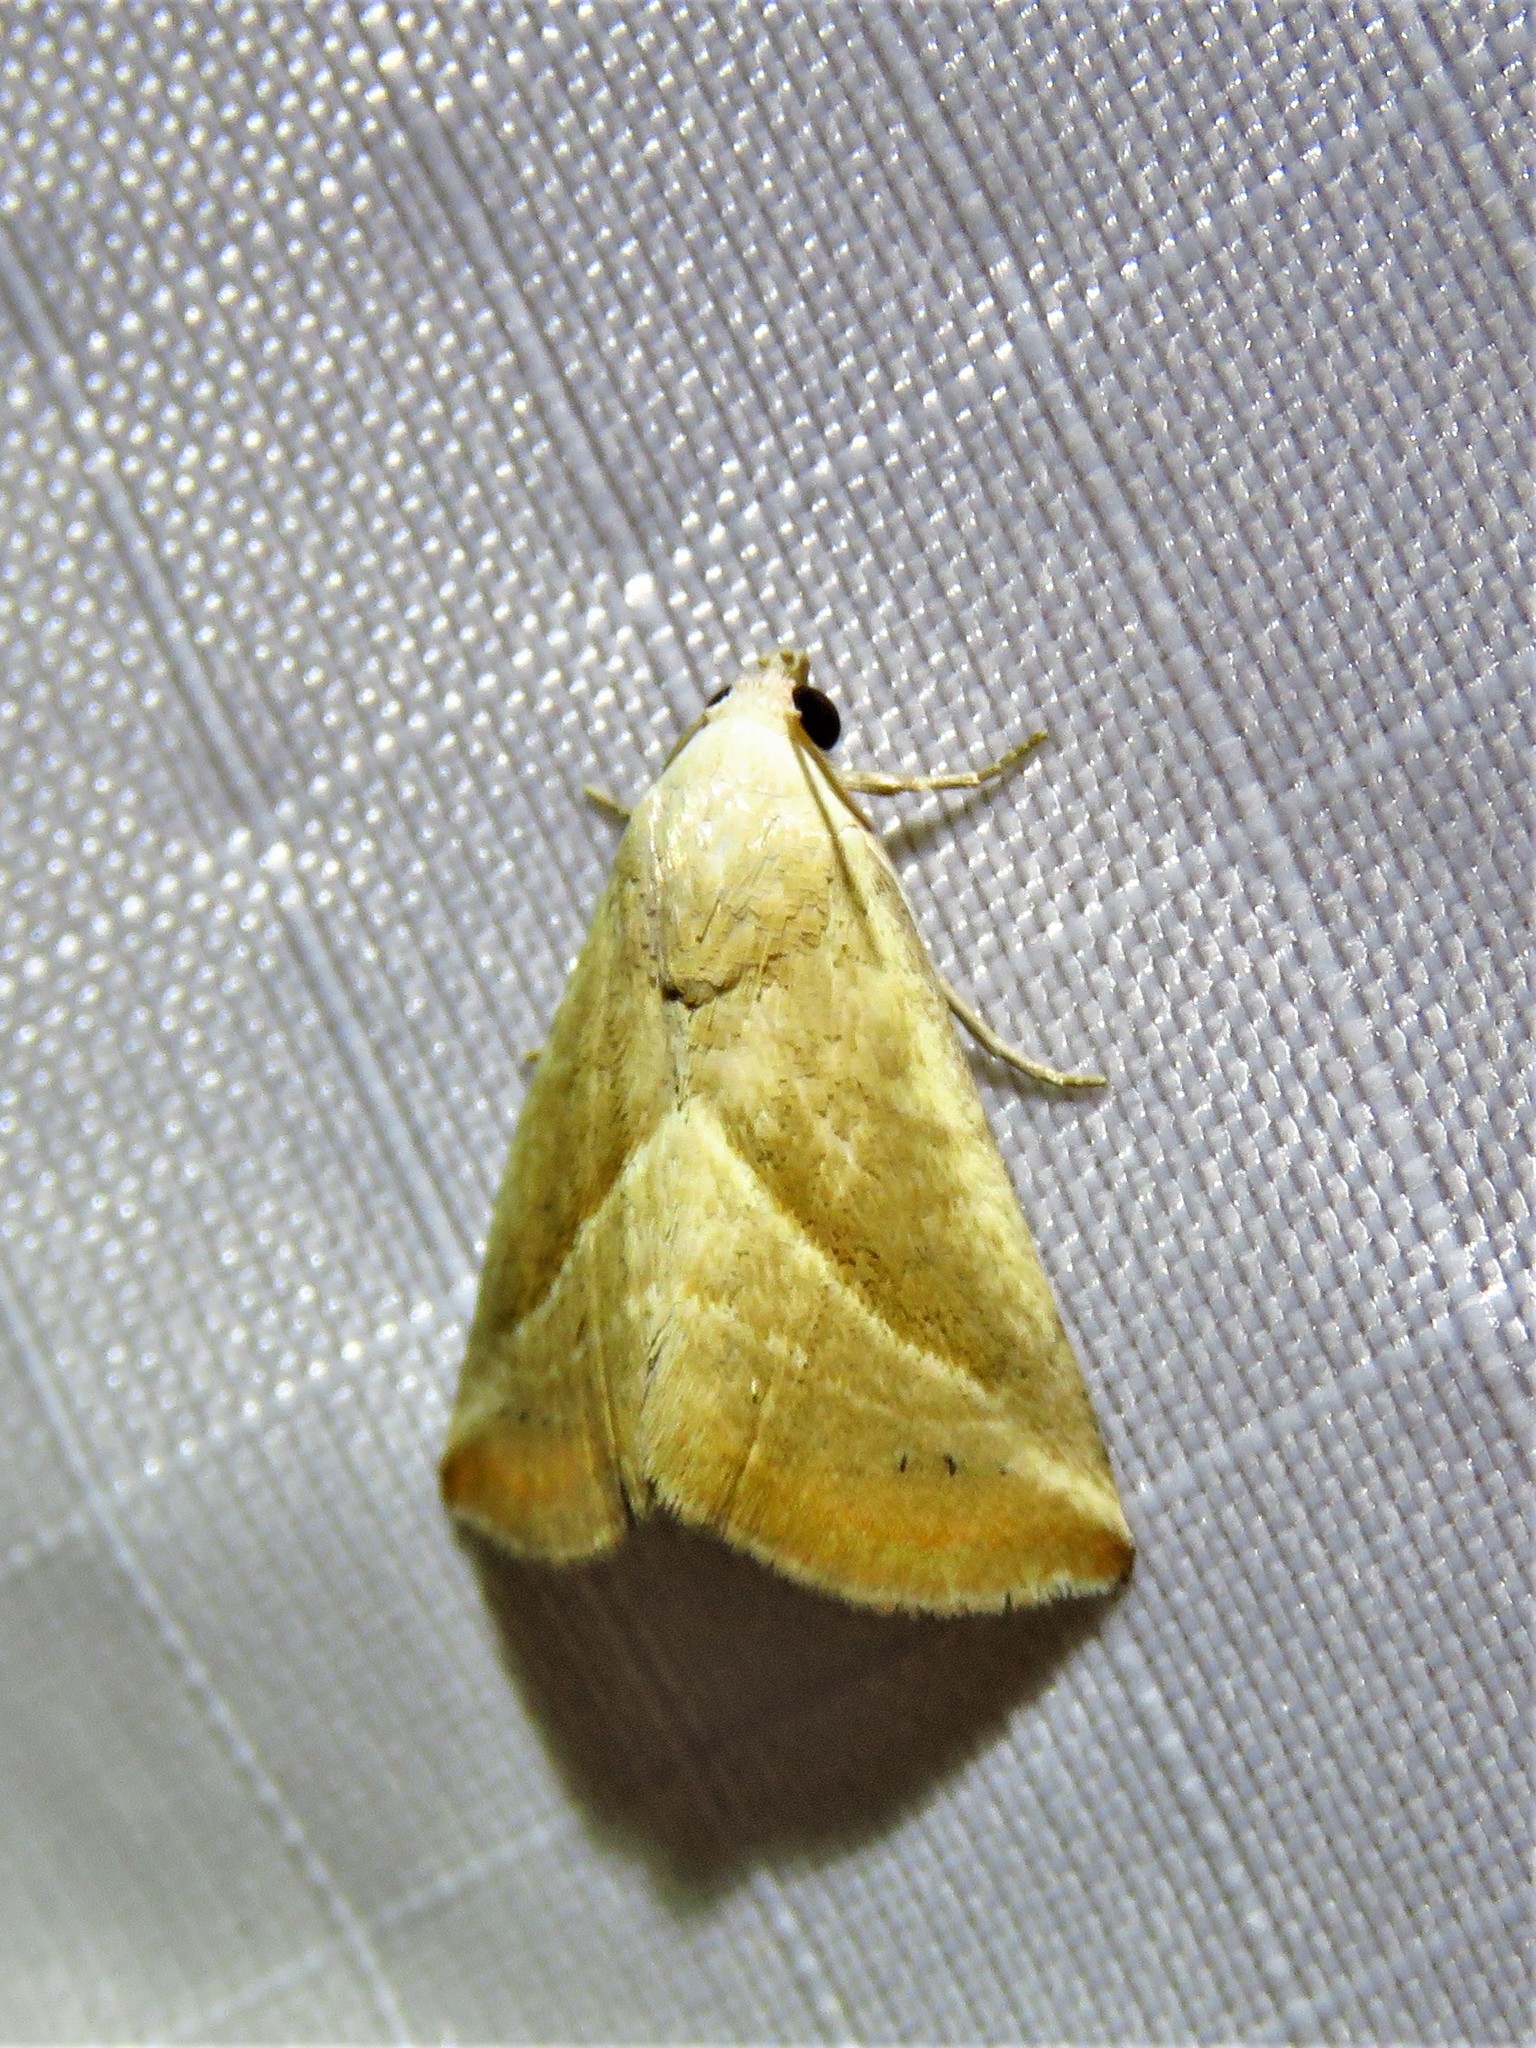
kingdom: Animalia
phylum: Arthropoda
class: Insecta
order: Lepidoptera
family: Noctuidae
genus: Eublemma
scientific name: Eublemma recta
